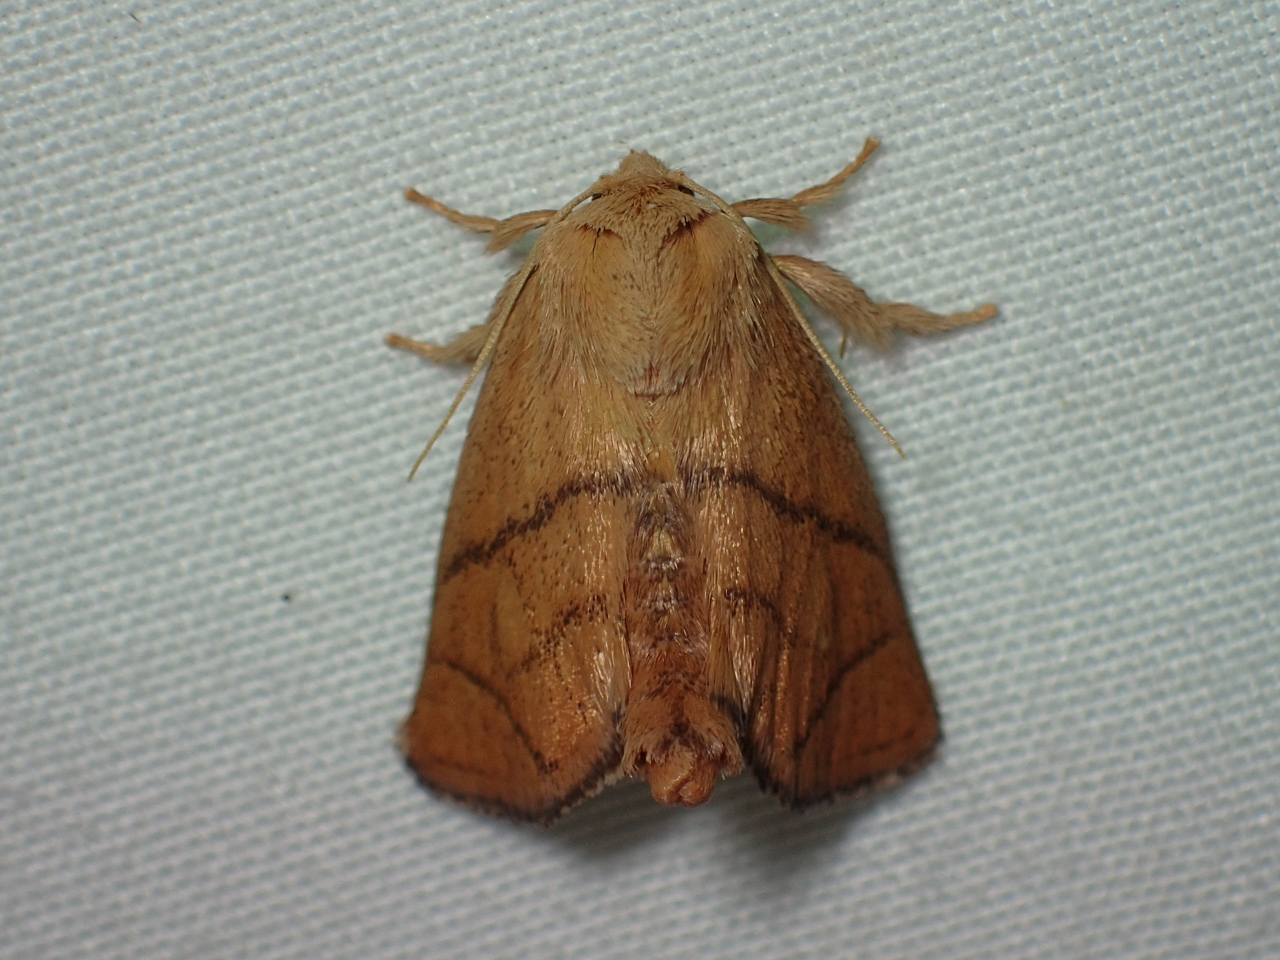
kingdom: Animalia
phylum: Arthropoda
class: Insecta
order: Lepidoptera
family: Limacodidae
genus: Apoda
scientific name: Apoda y-inversa
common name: Yellow-collared slug moth
